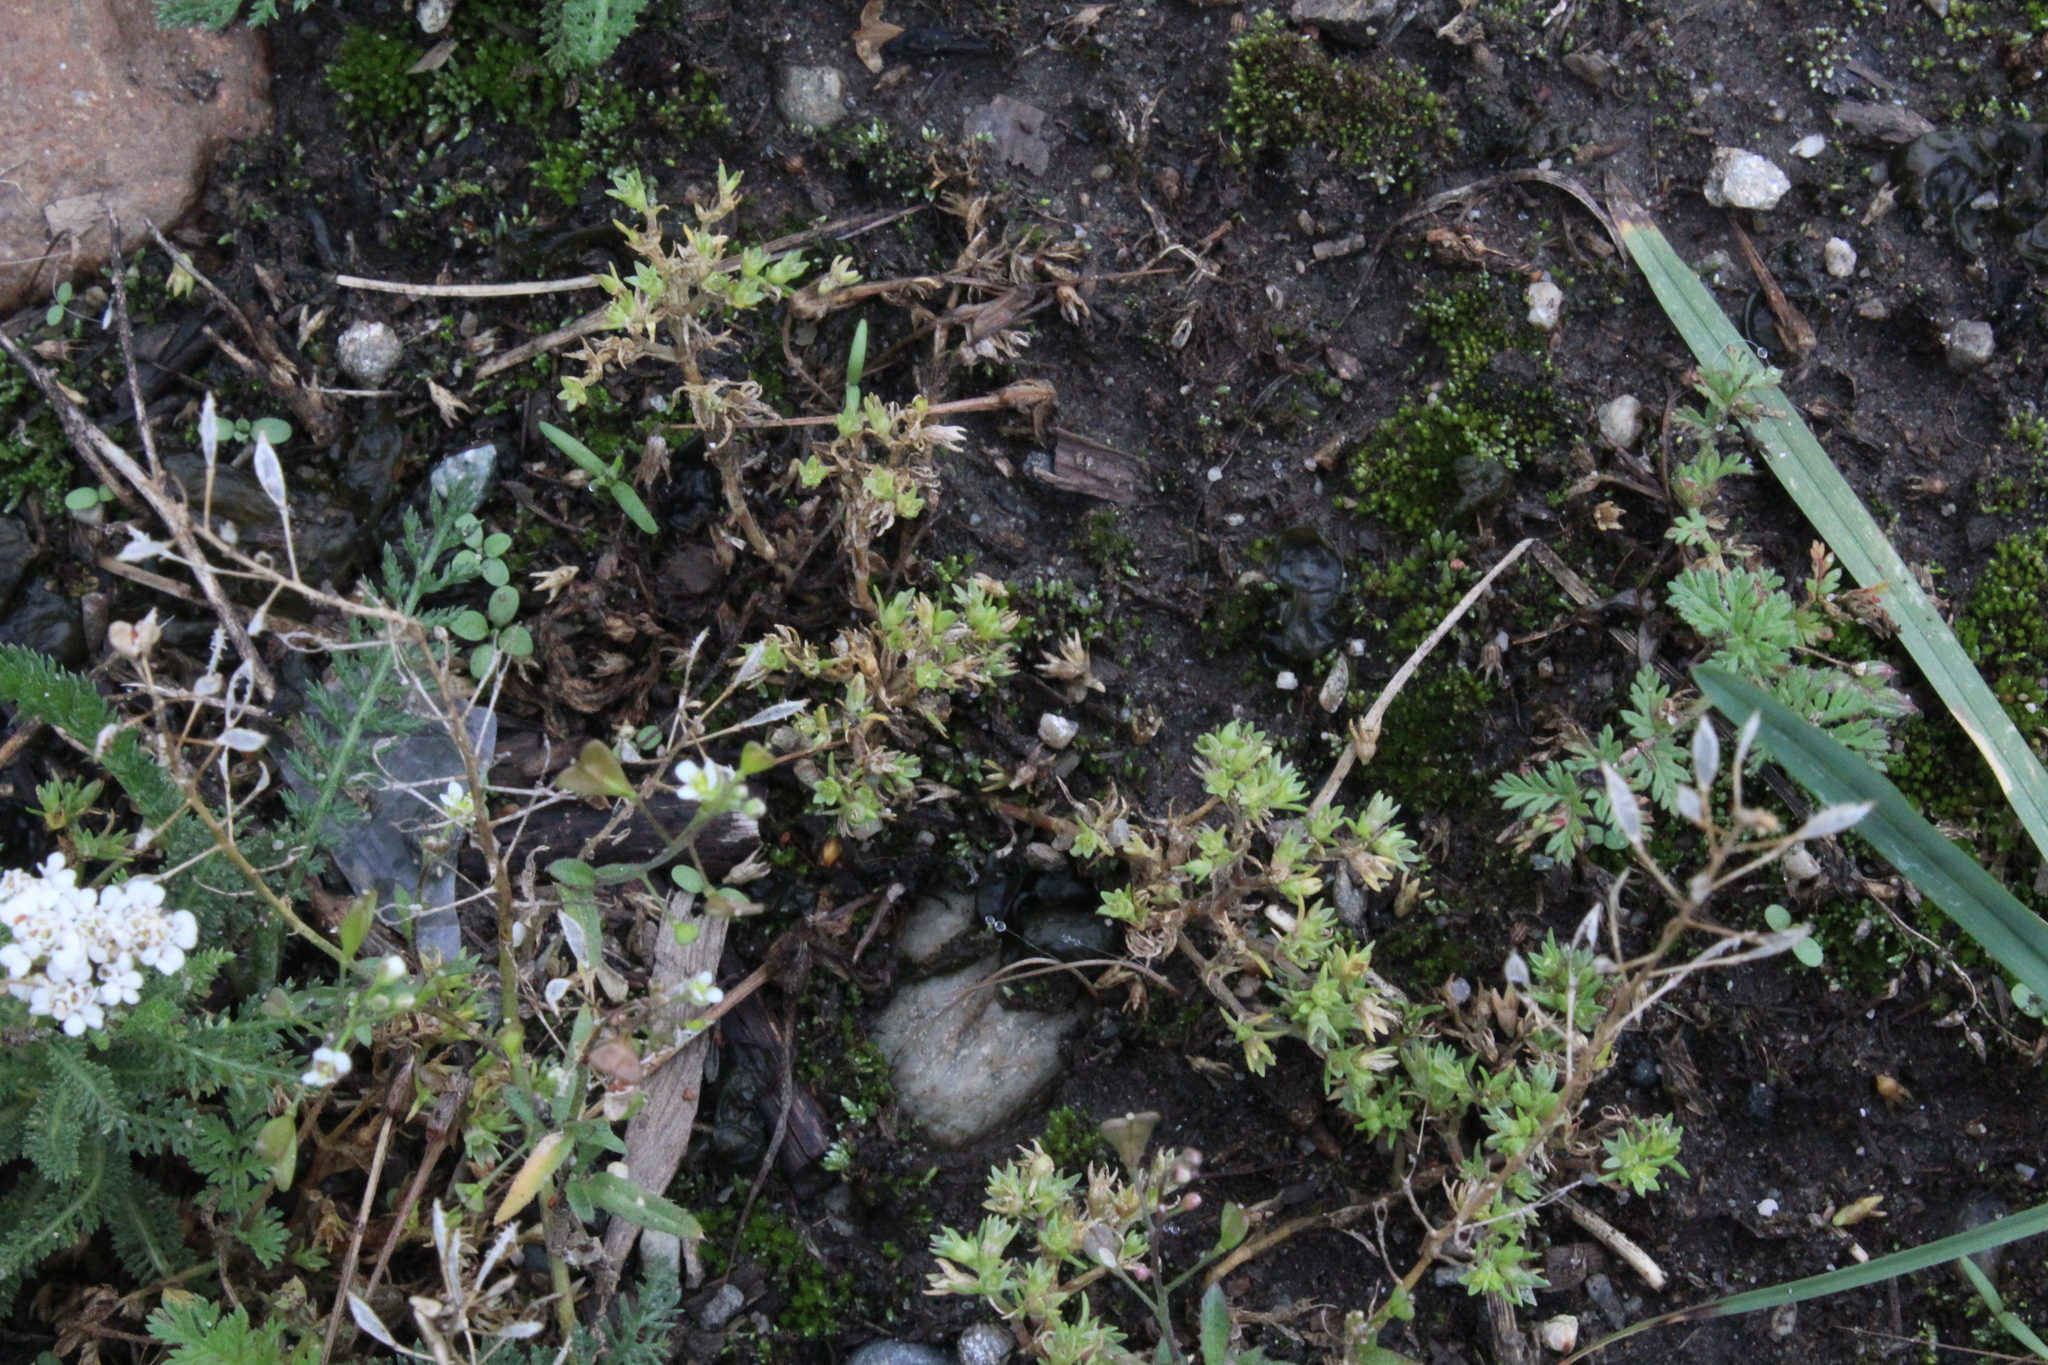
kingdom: Plantae
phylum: Tracheophyta
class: Magnoliopsida
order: Caryophyllales
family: Caryophyllaceae
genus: Scleranthus
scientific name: Scleranthus annuus
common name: Annual knawel
